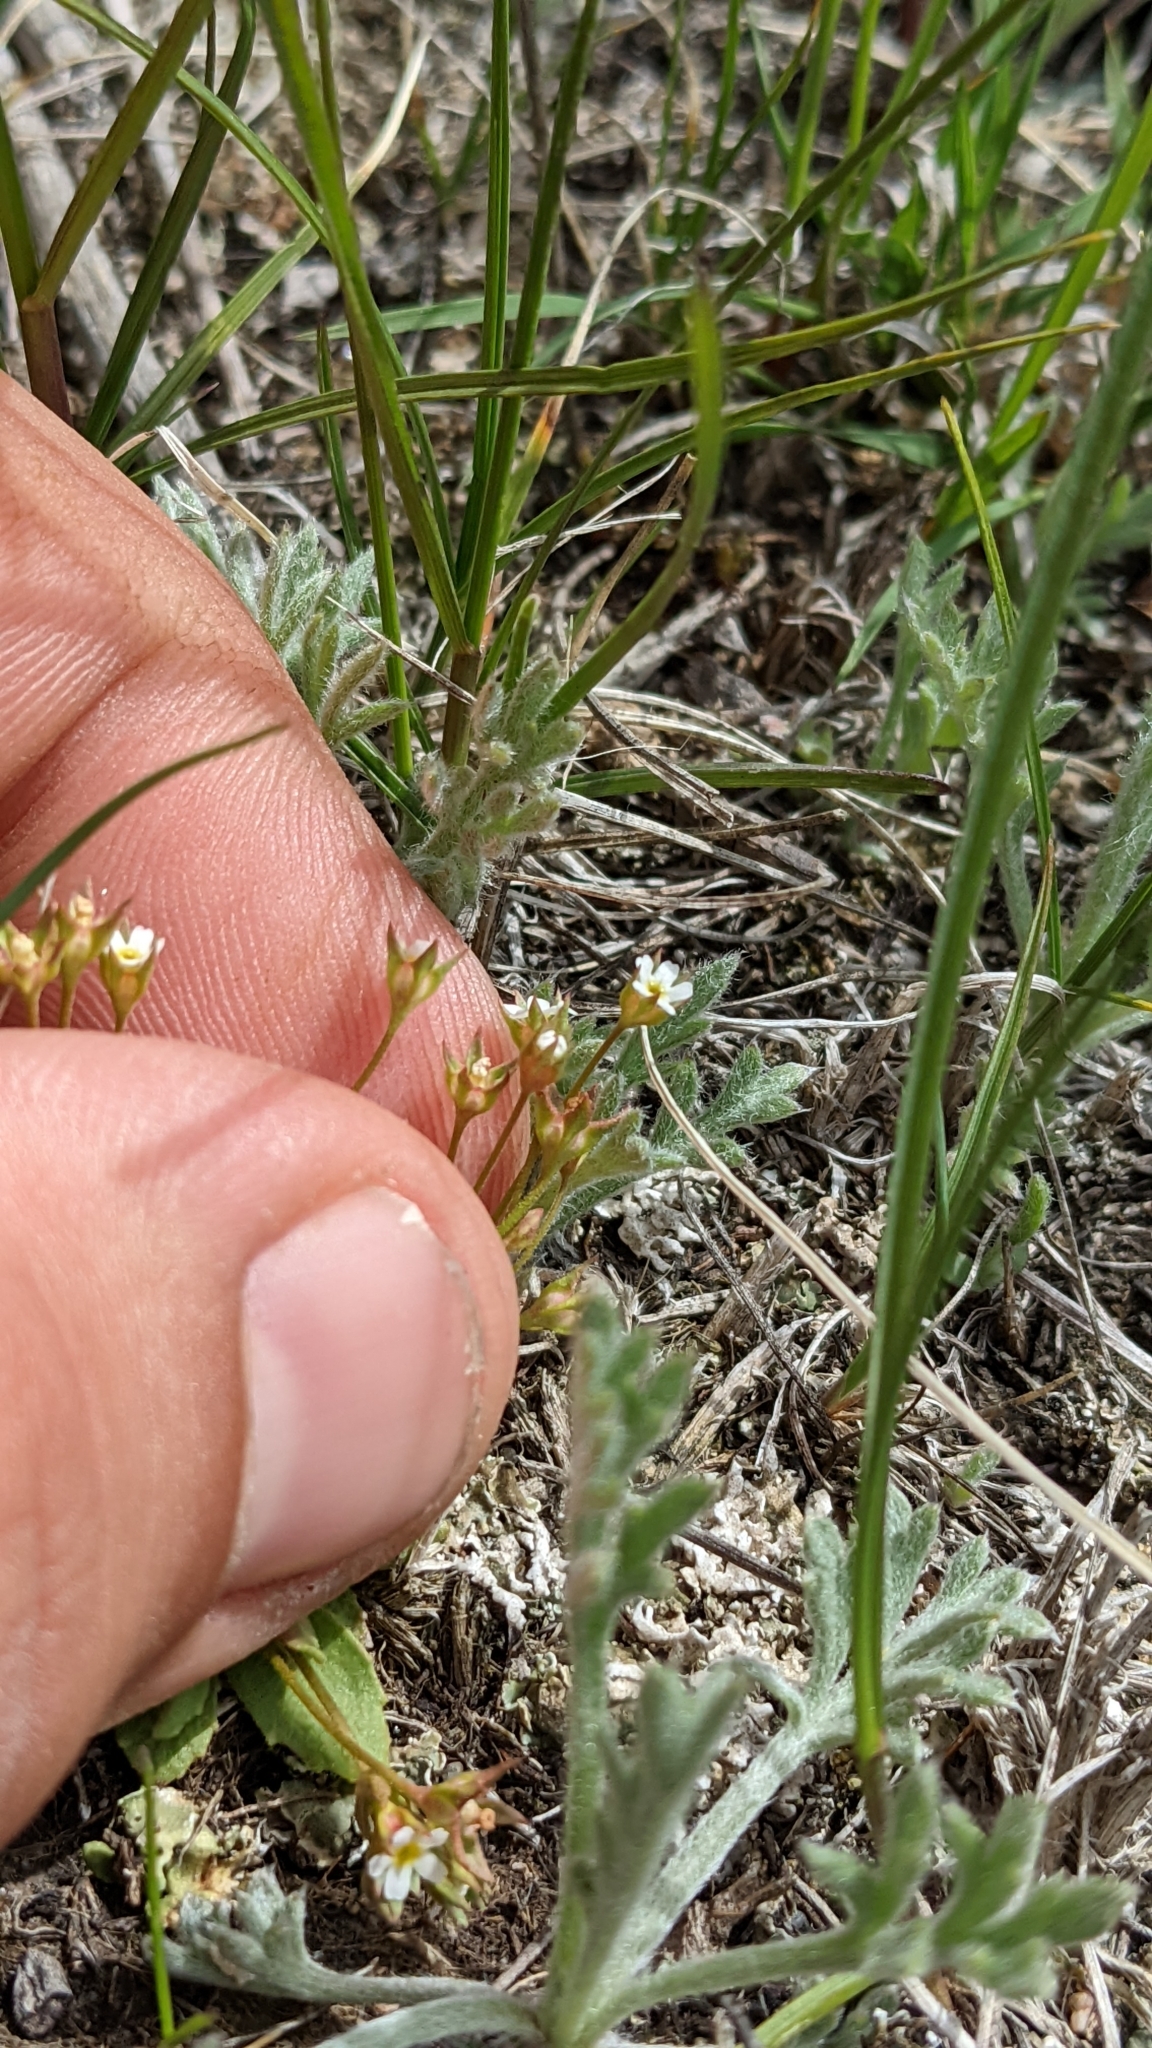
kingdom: Plantae
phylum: Tracheophyta
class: Magnoliopsida
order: Ericales
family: Primulaceae
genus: Androsace
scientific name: Androsace septentrionalis
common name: Hairy northern fairy-candelabra
